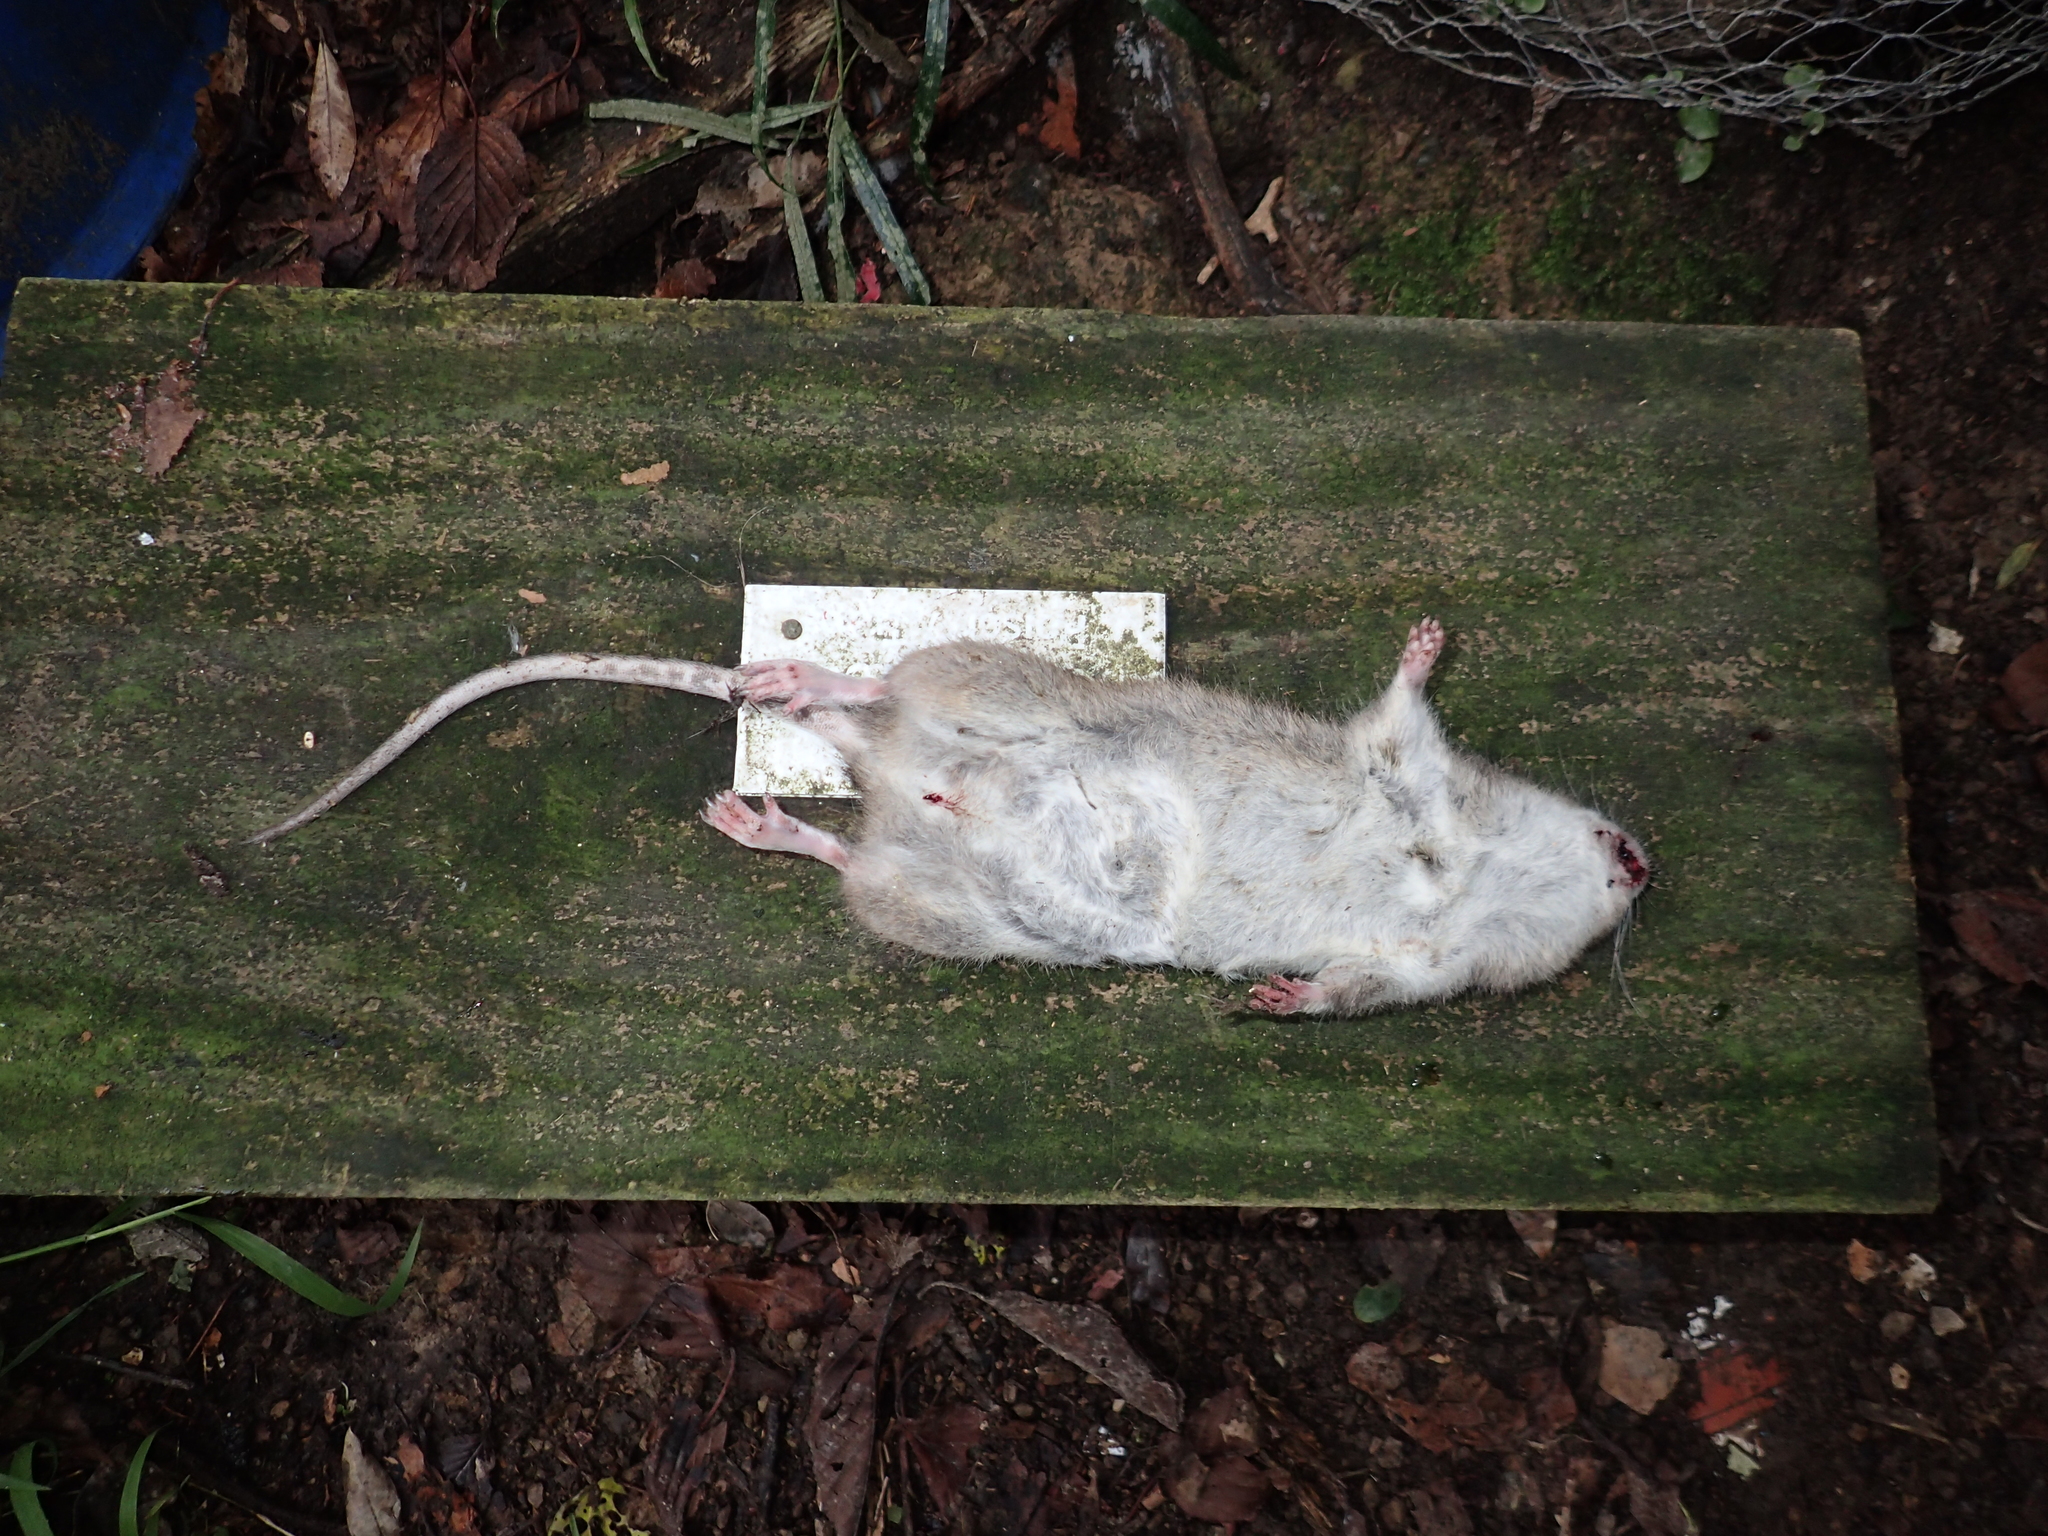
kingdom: Animalia
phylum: Chordata
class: Mammalia
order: Rodentia
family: Muridae
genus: Rattus
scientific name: Rattus norvegicus
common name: Brown rat
